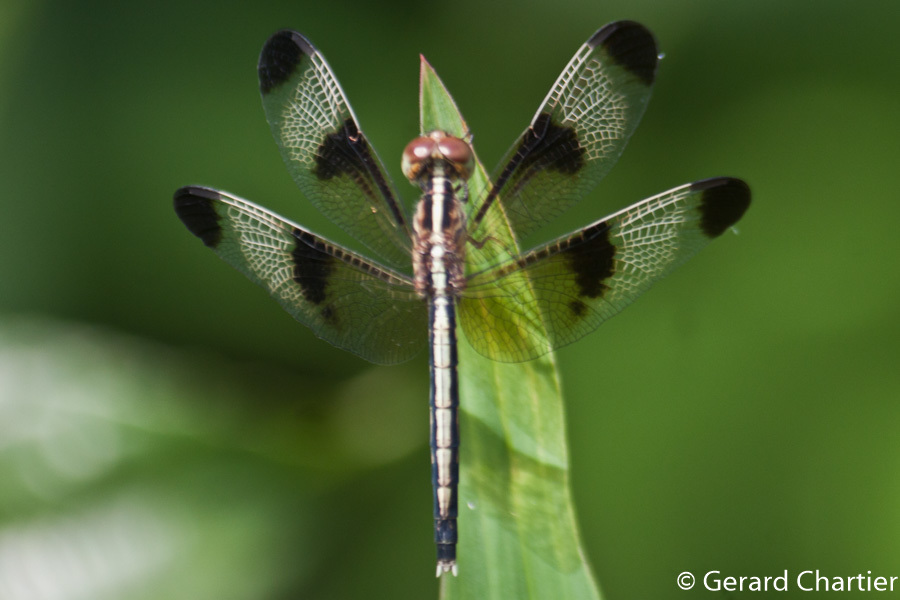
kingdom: Animalia
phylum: Arthropoda
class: Insecta
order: Odonata
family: Libellulidae
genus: Neurothemis
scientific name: Neurothemis tullia
